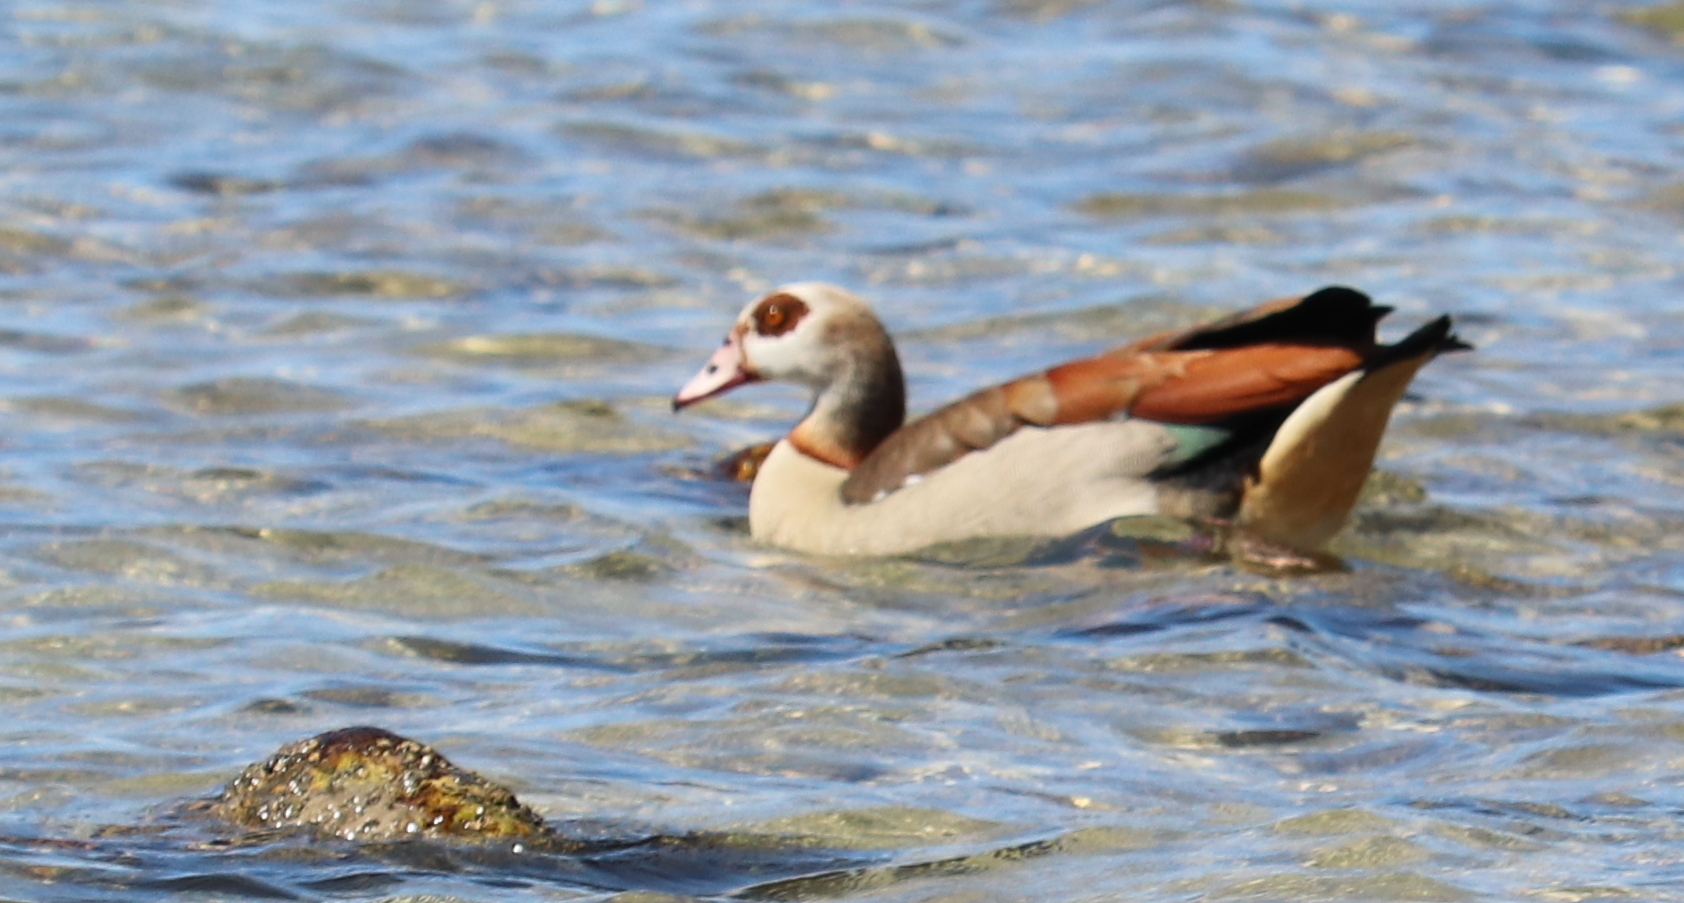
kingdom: Animalia
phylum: Chordata
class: Aves
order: Anseriformes
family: Anatidae
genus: Alopochen
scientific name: Alopochen aegyptiaca
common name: Egyptian goose
